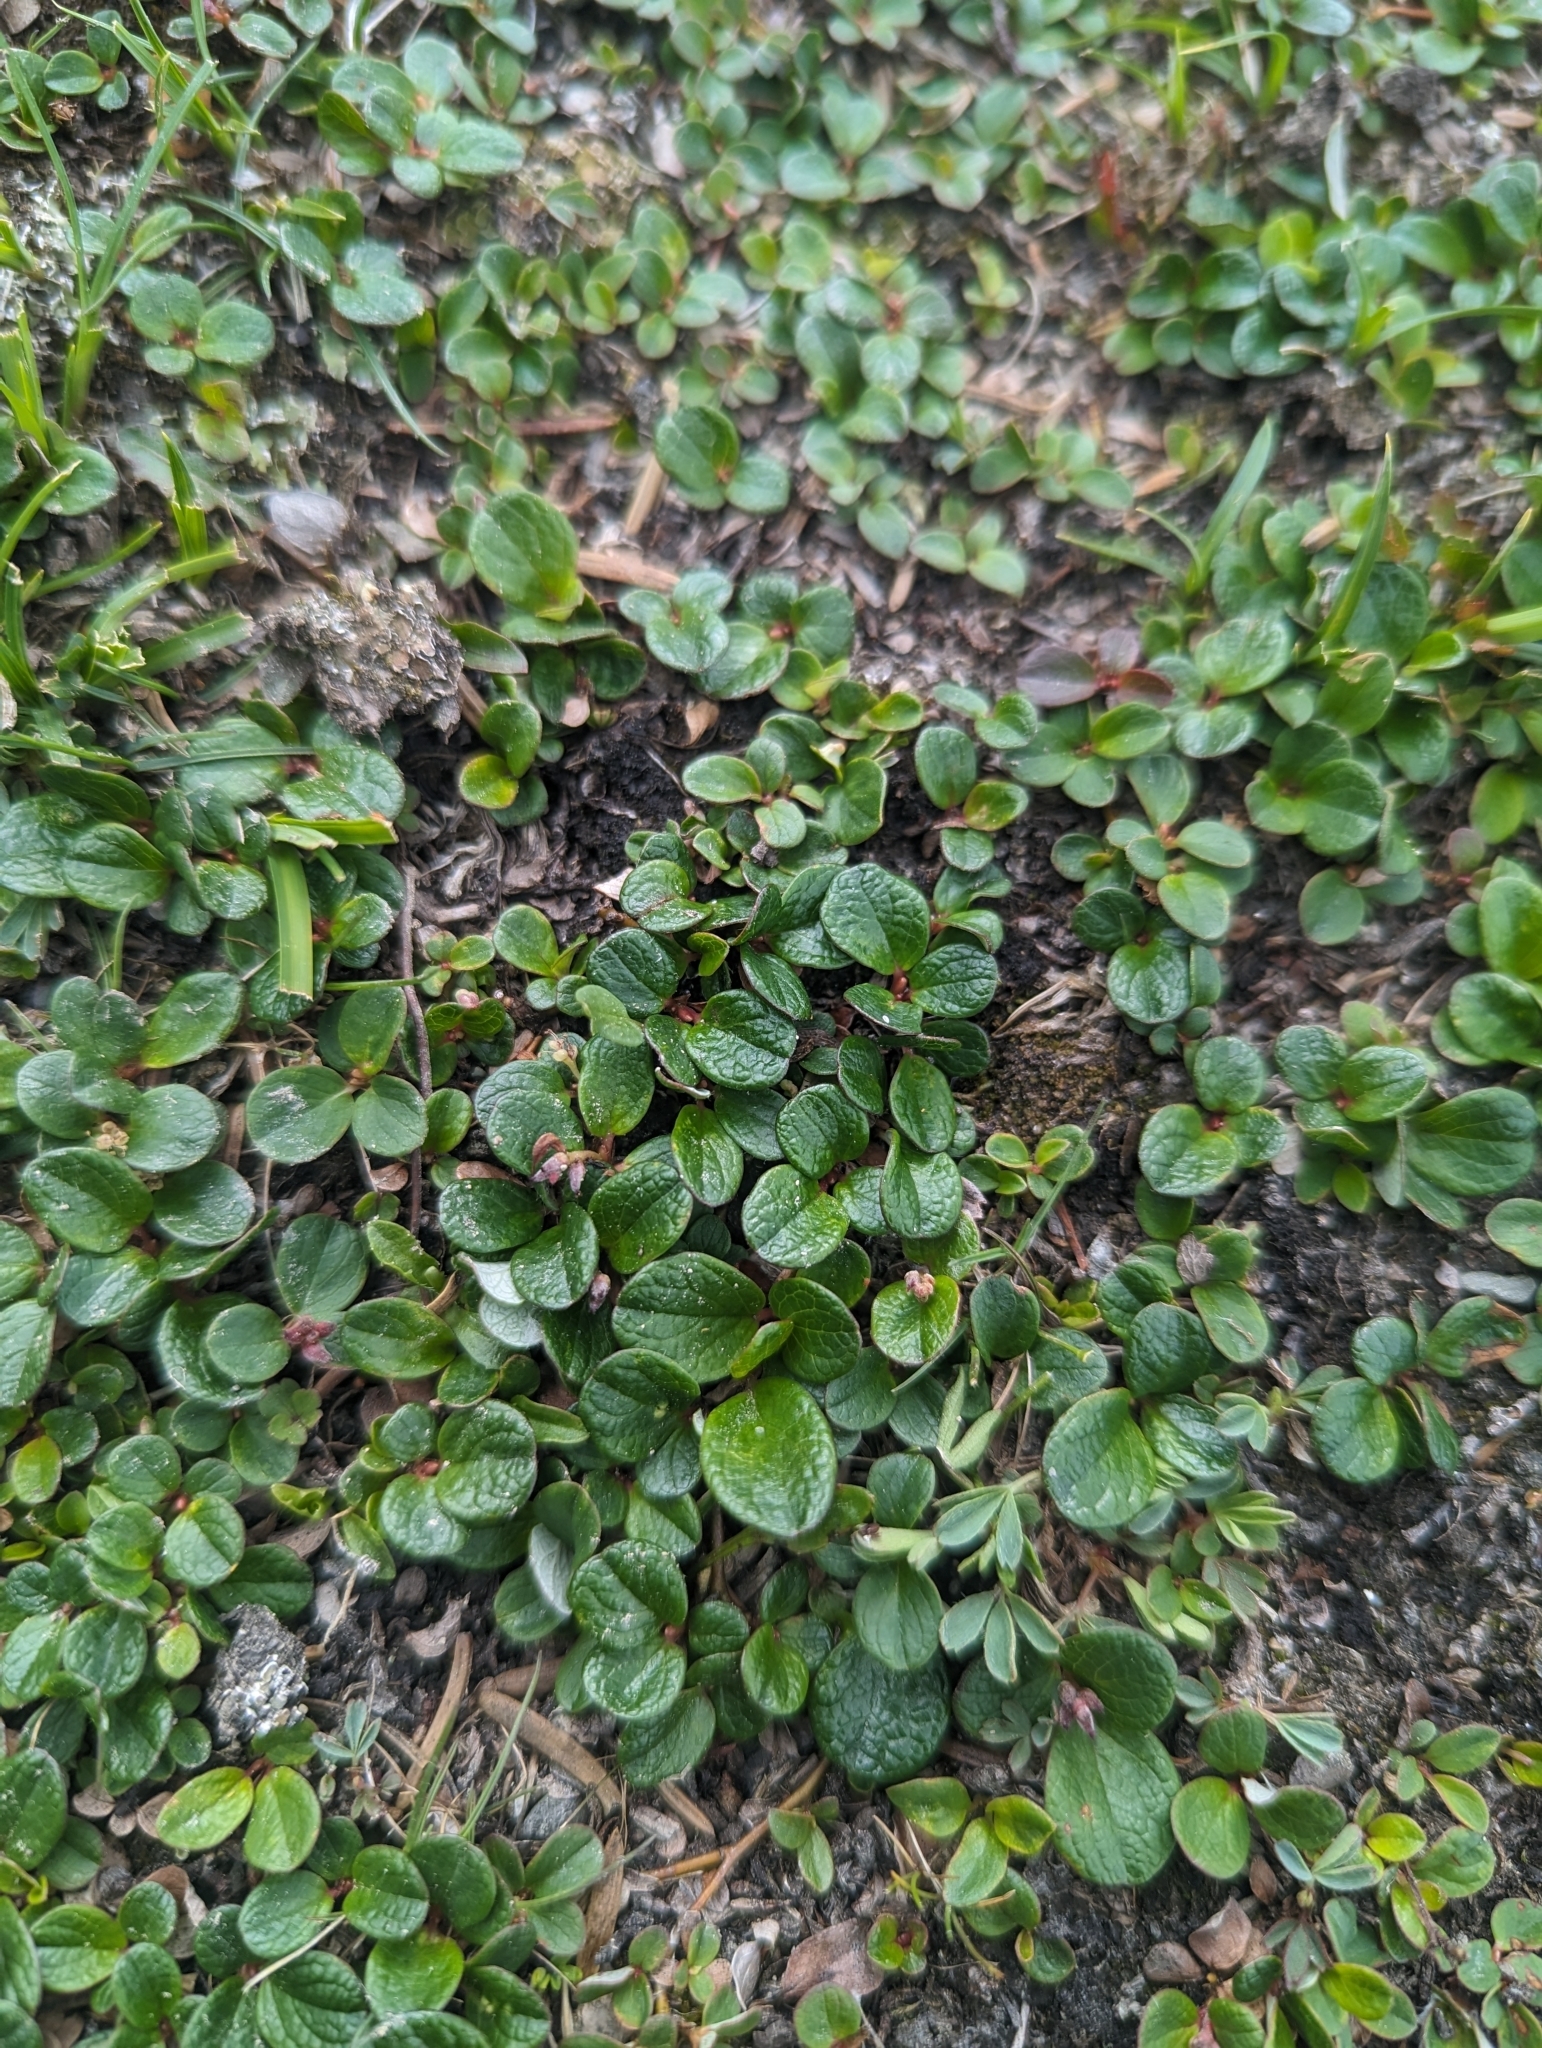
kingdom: Plantae
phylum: Tracheophyta
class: Magnoliopsida
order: Malpighiales
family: Salicaceae
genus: Salix
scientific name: Salix nivalis
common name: Dwarf snow willow
